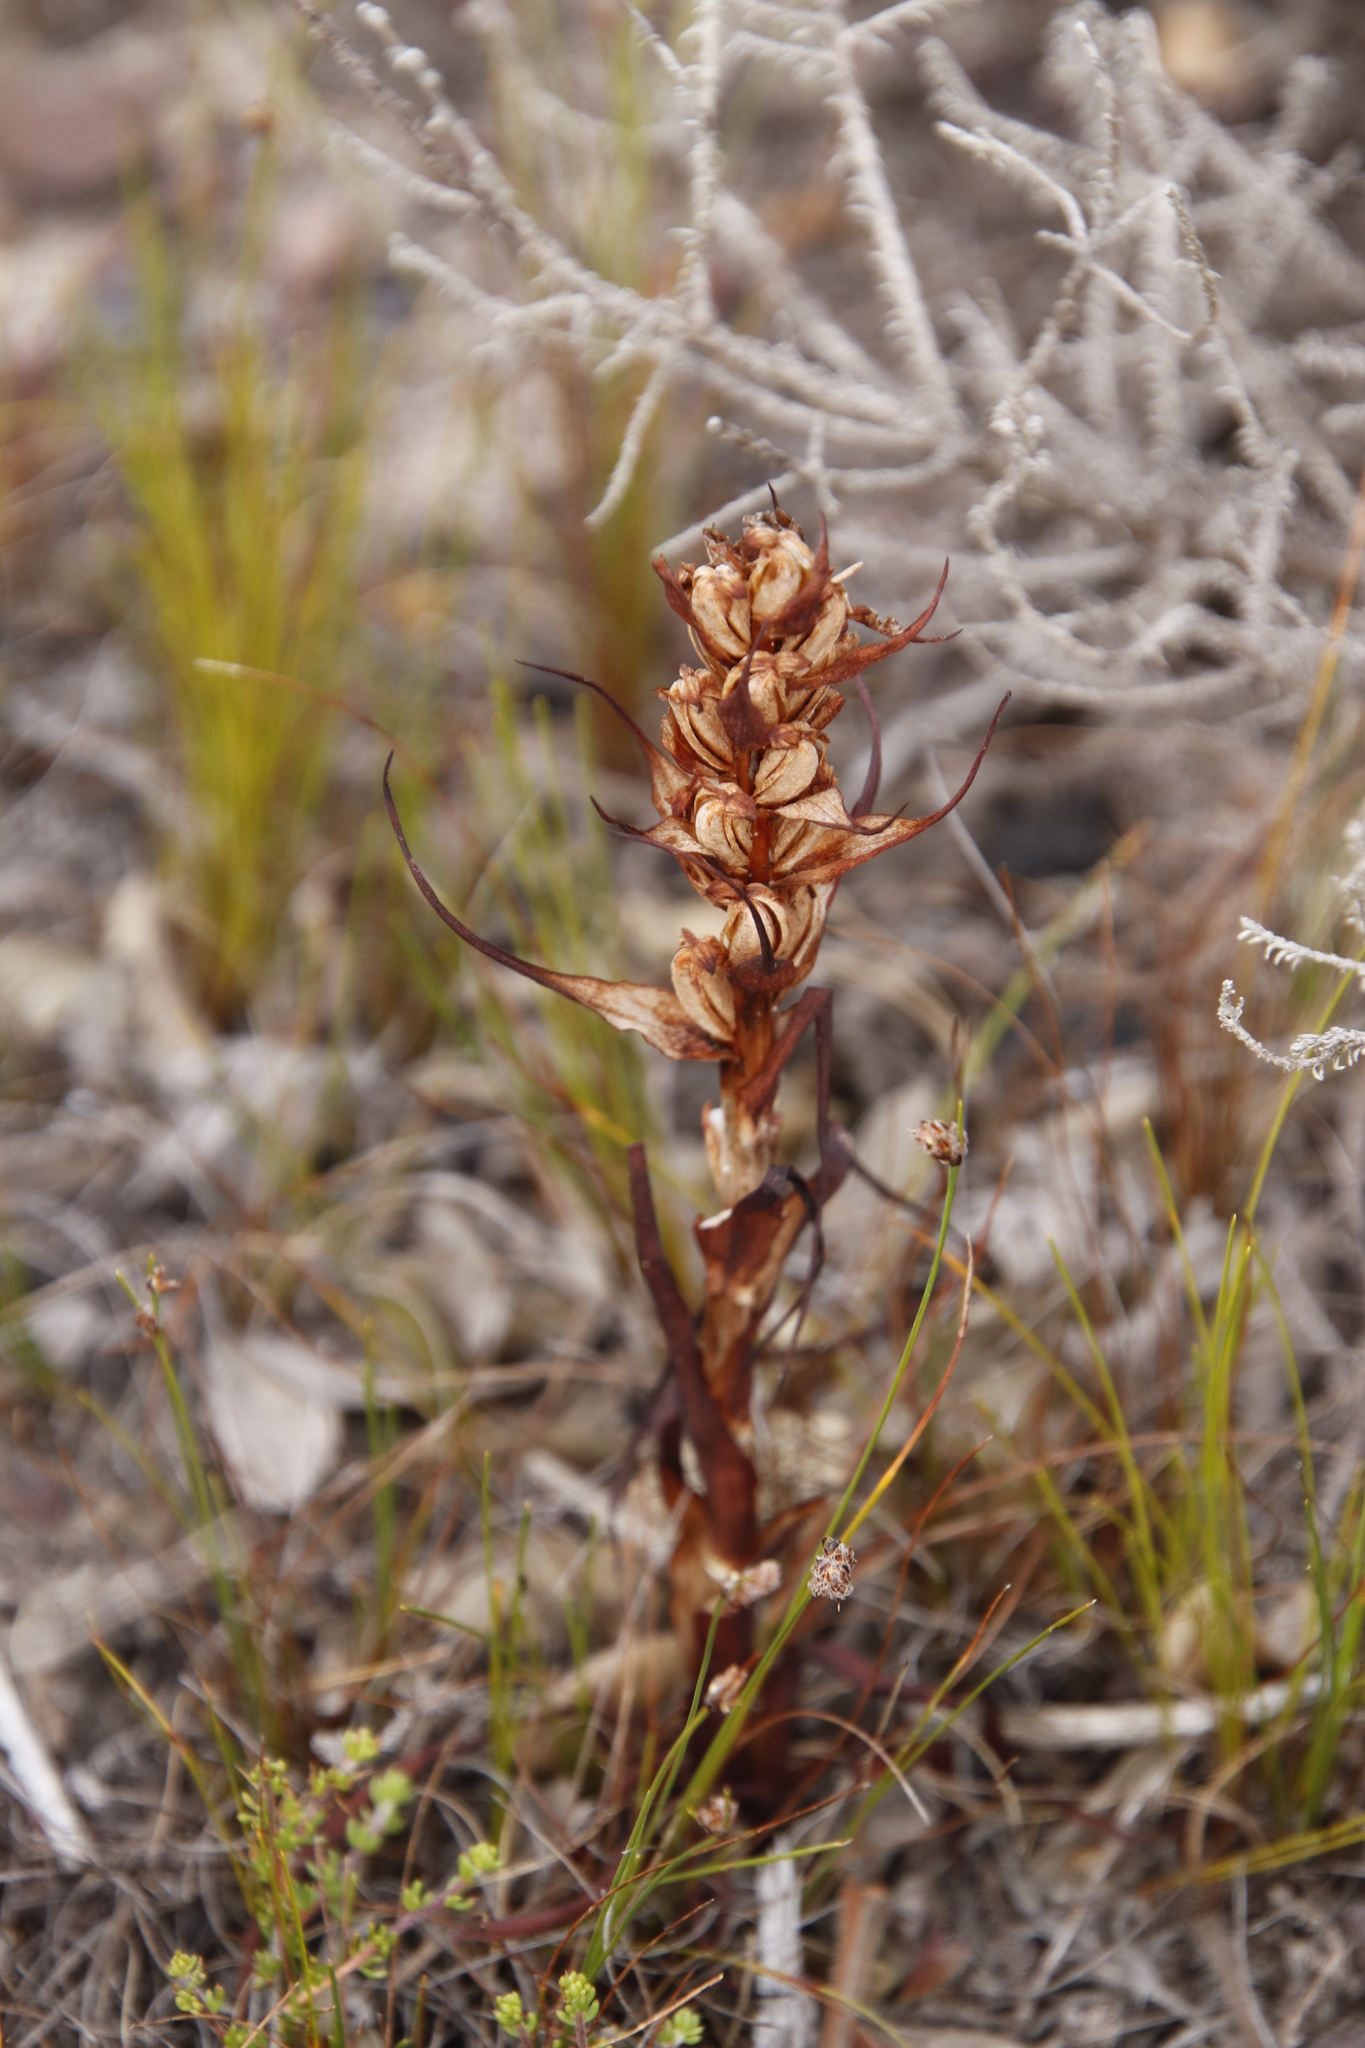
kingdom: Plantae
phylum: Tracheophyta
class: Liliopsida
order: Asparagales
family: Orchidaceae
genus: Disa
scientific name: Disa bracteata
